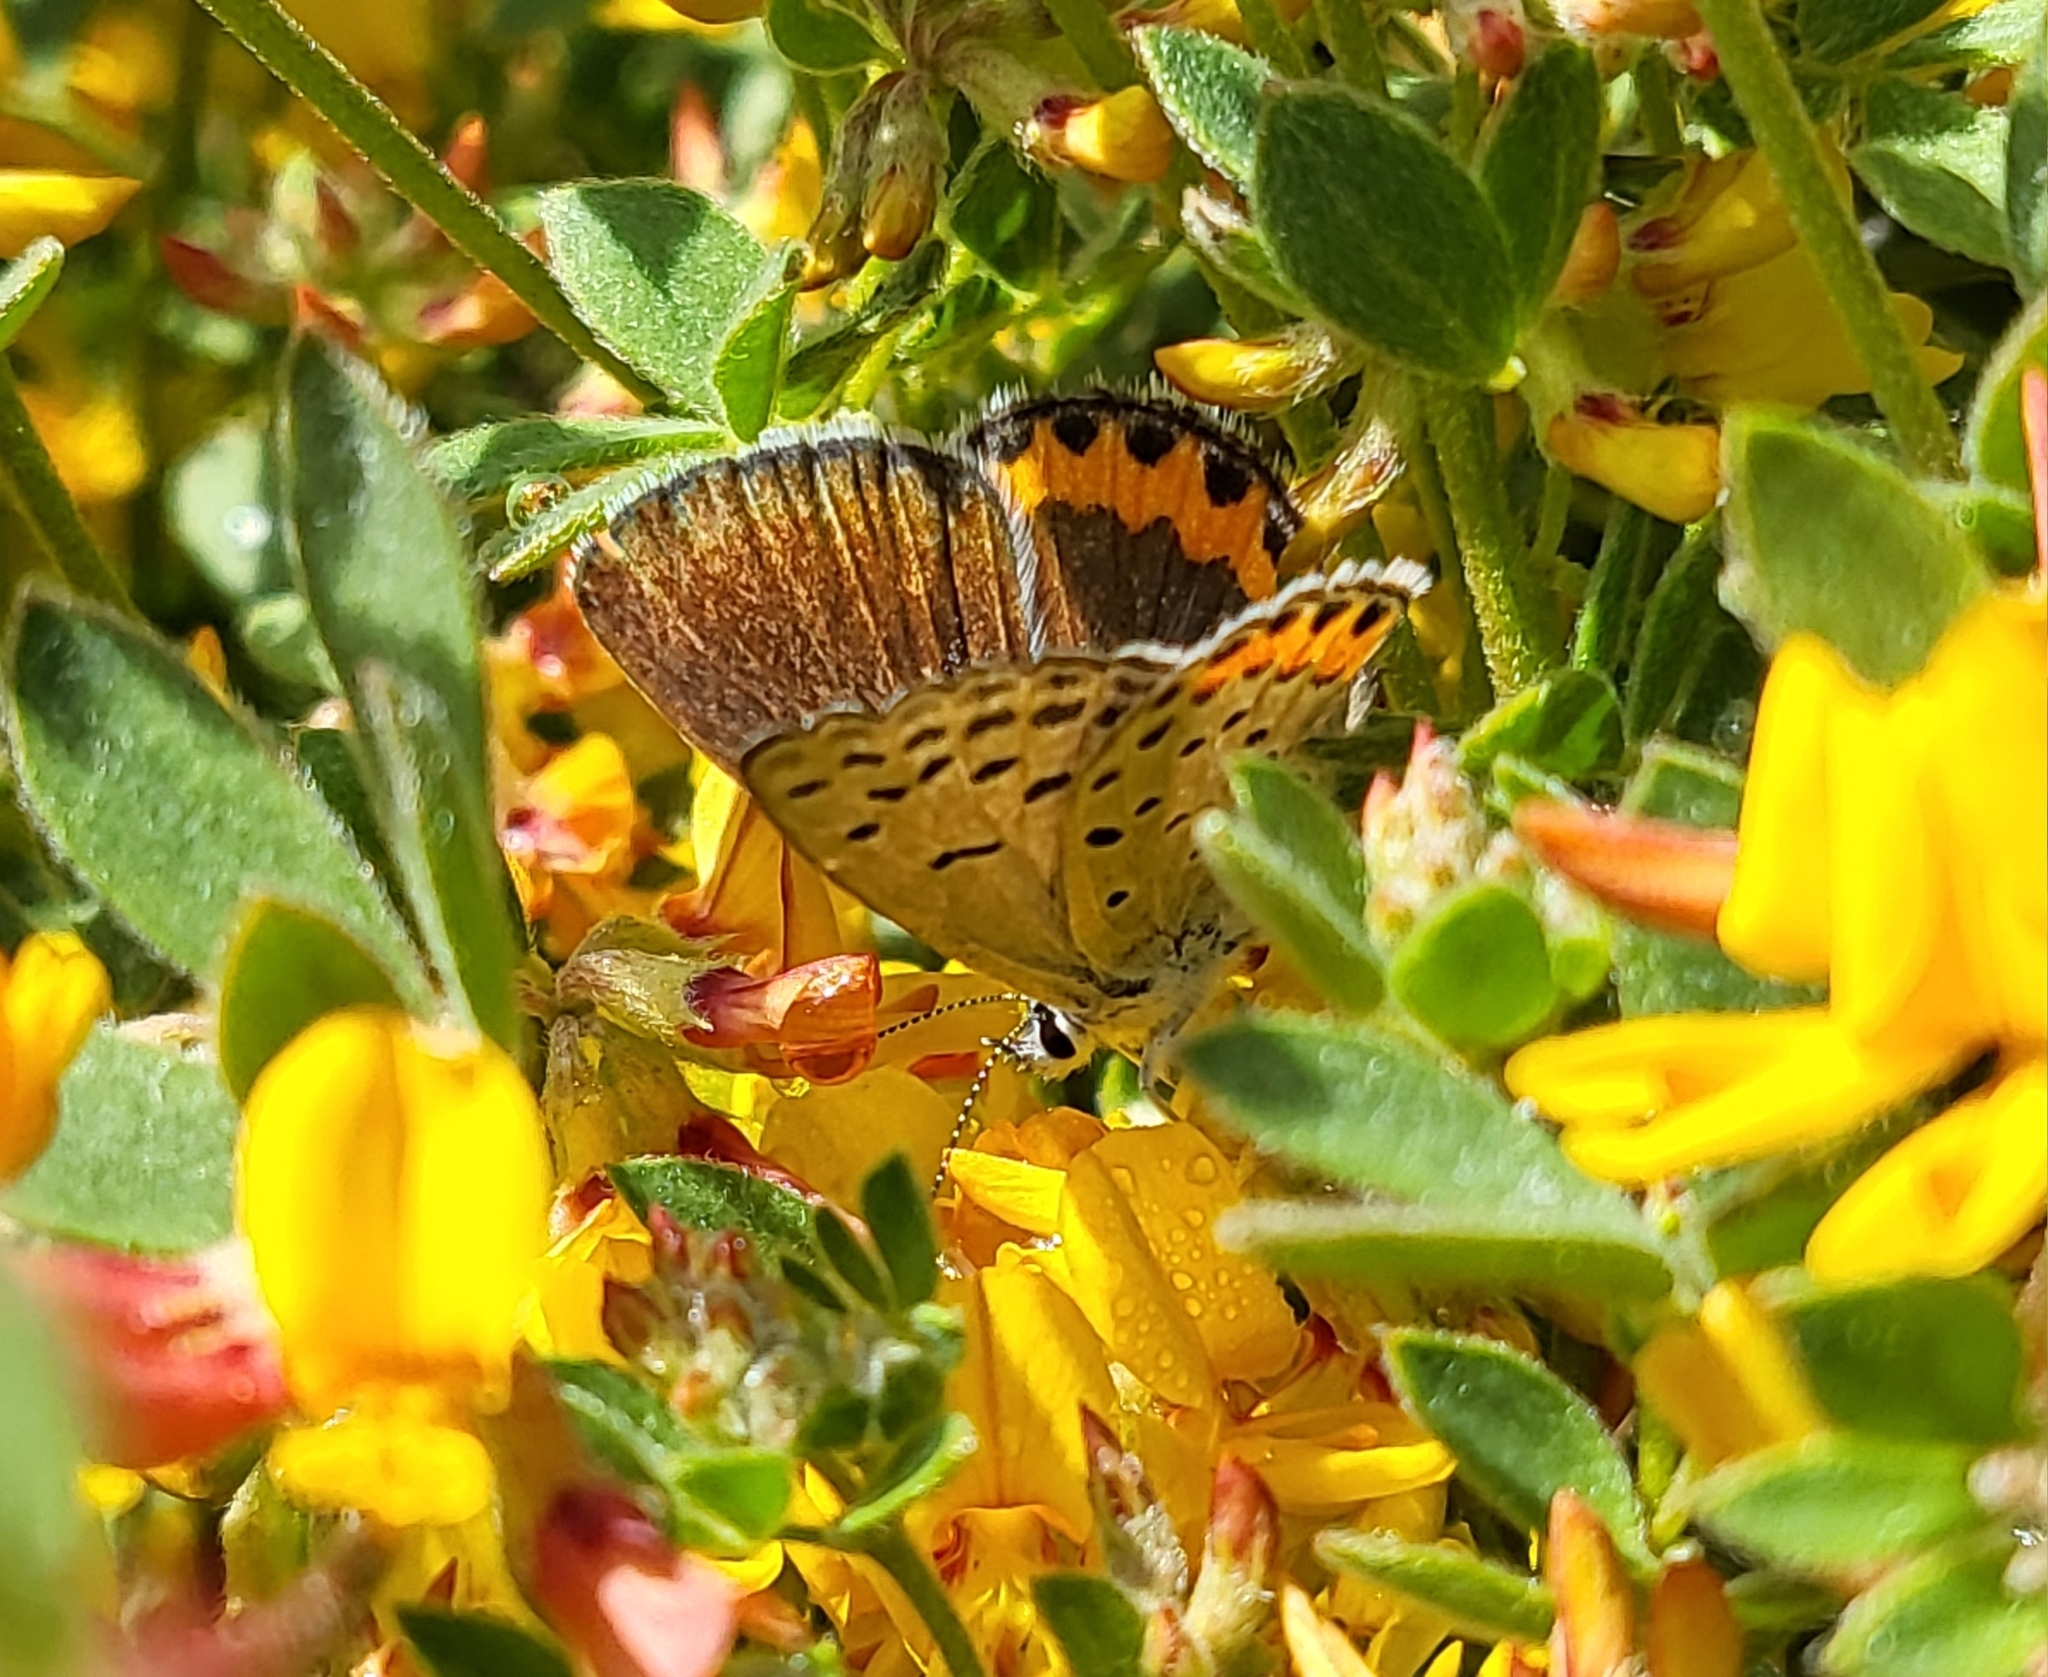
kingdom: Animalia
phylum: Arthropoda
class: Insecta
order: Lepidoptera
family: Lycaenidae
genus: Icaricia
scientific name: Icaricia acmon
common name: Acmon blue
